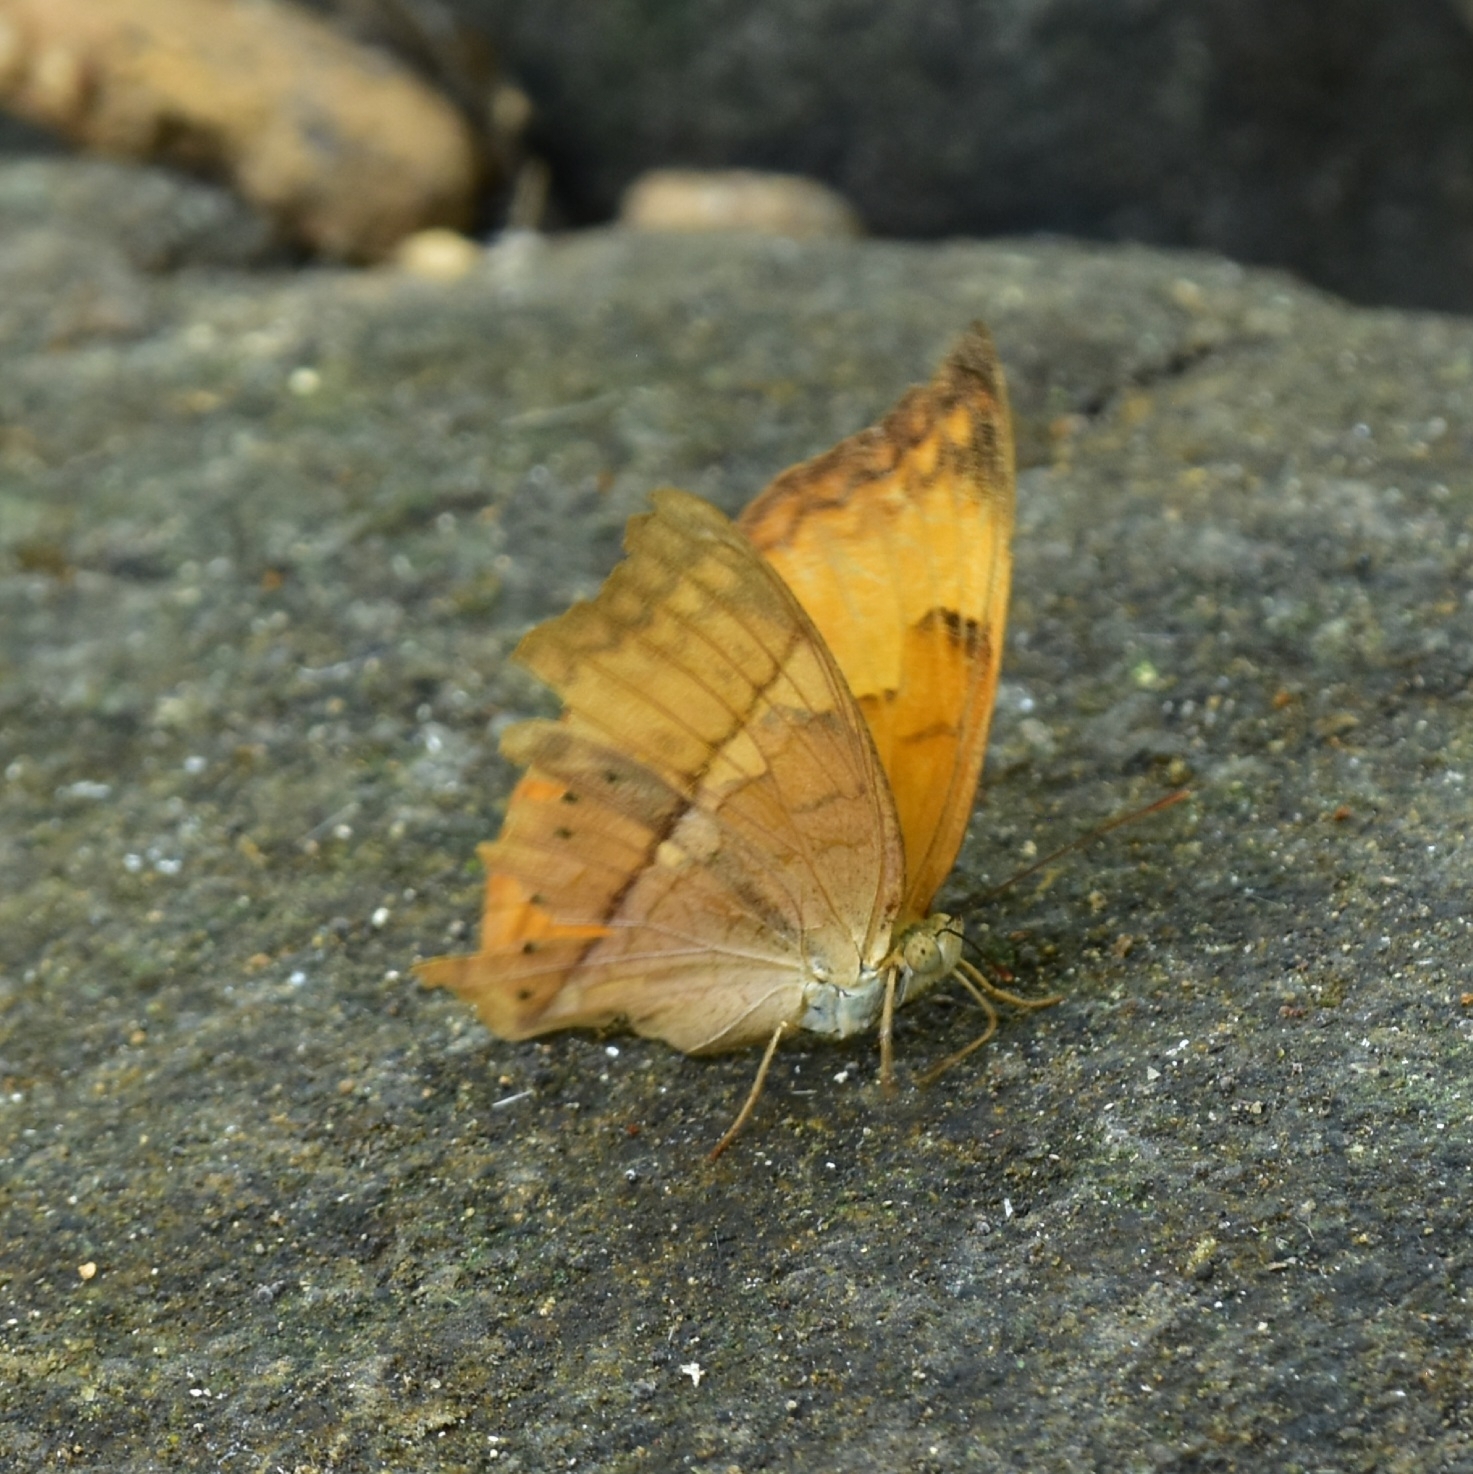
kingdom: Animalia
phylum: Arthropoda
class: Insecta
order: Lepidoptera
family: Nymphalidae
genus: Cirrochroa
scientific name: Cirrochroa thais
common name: Tamil yeoman
